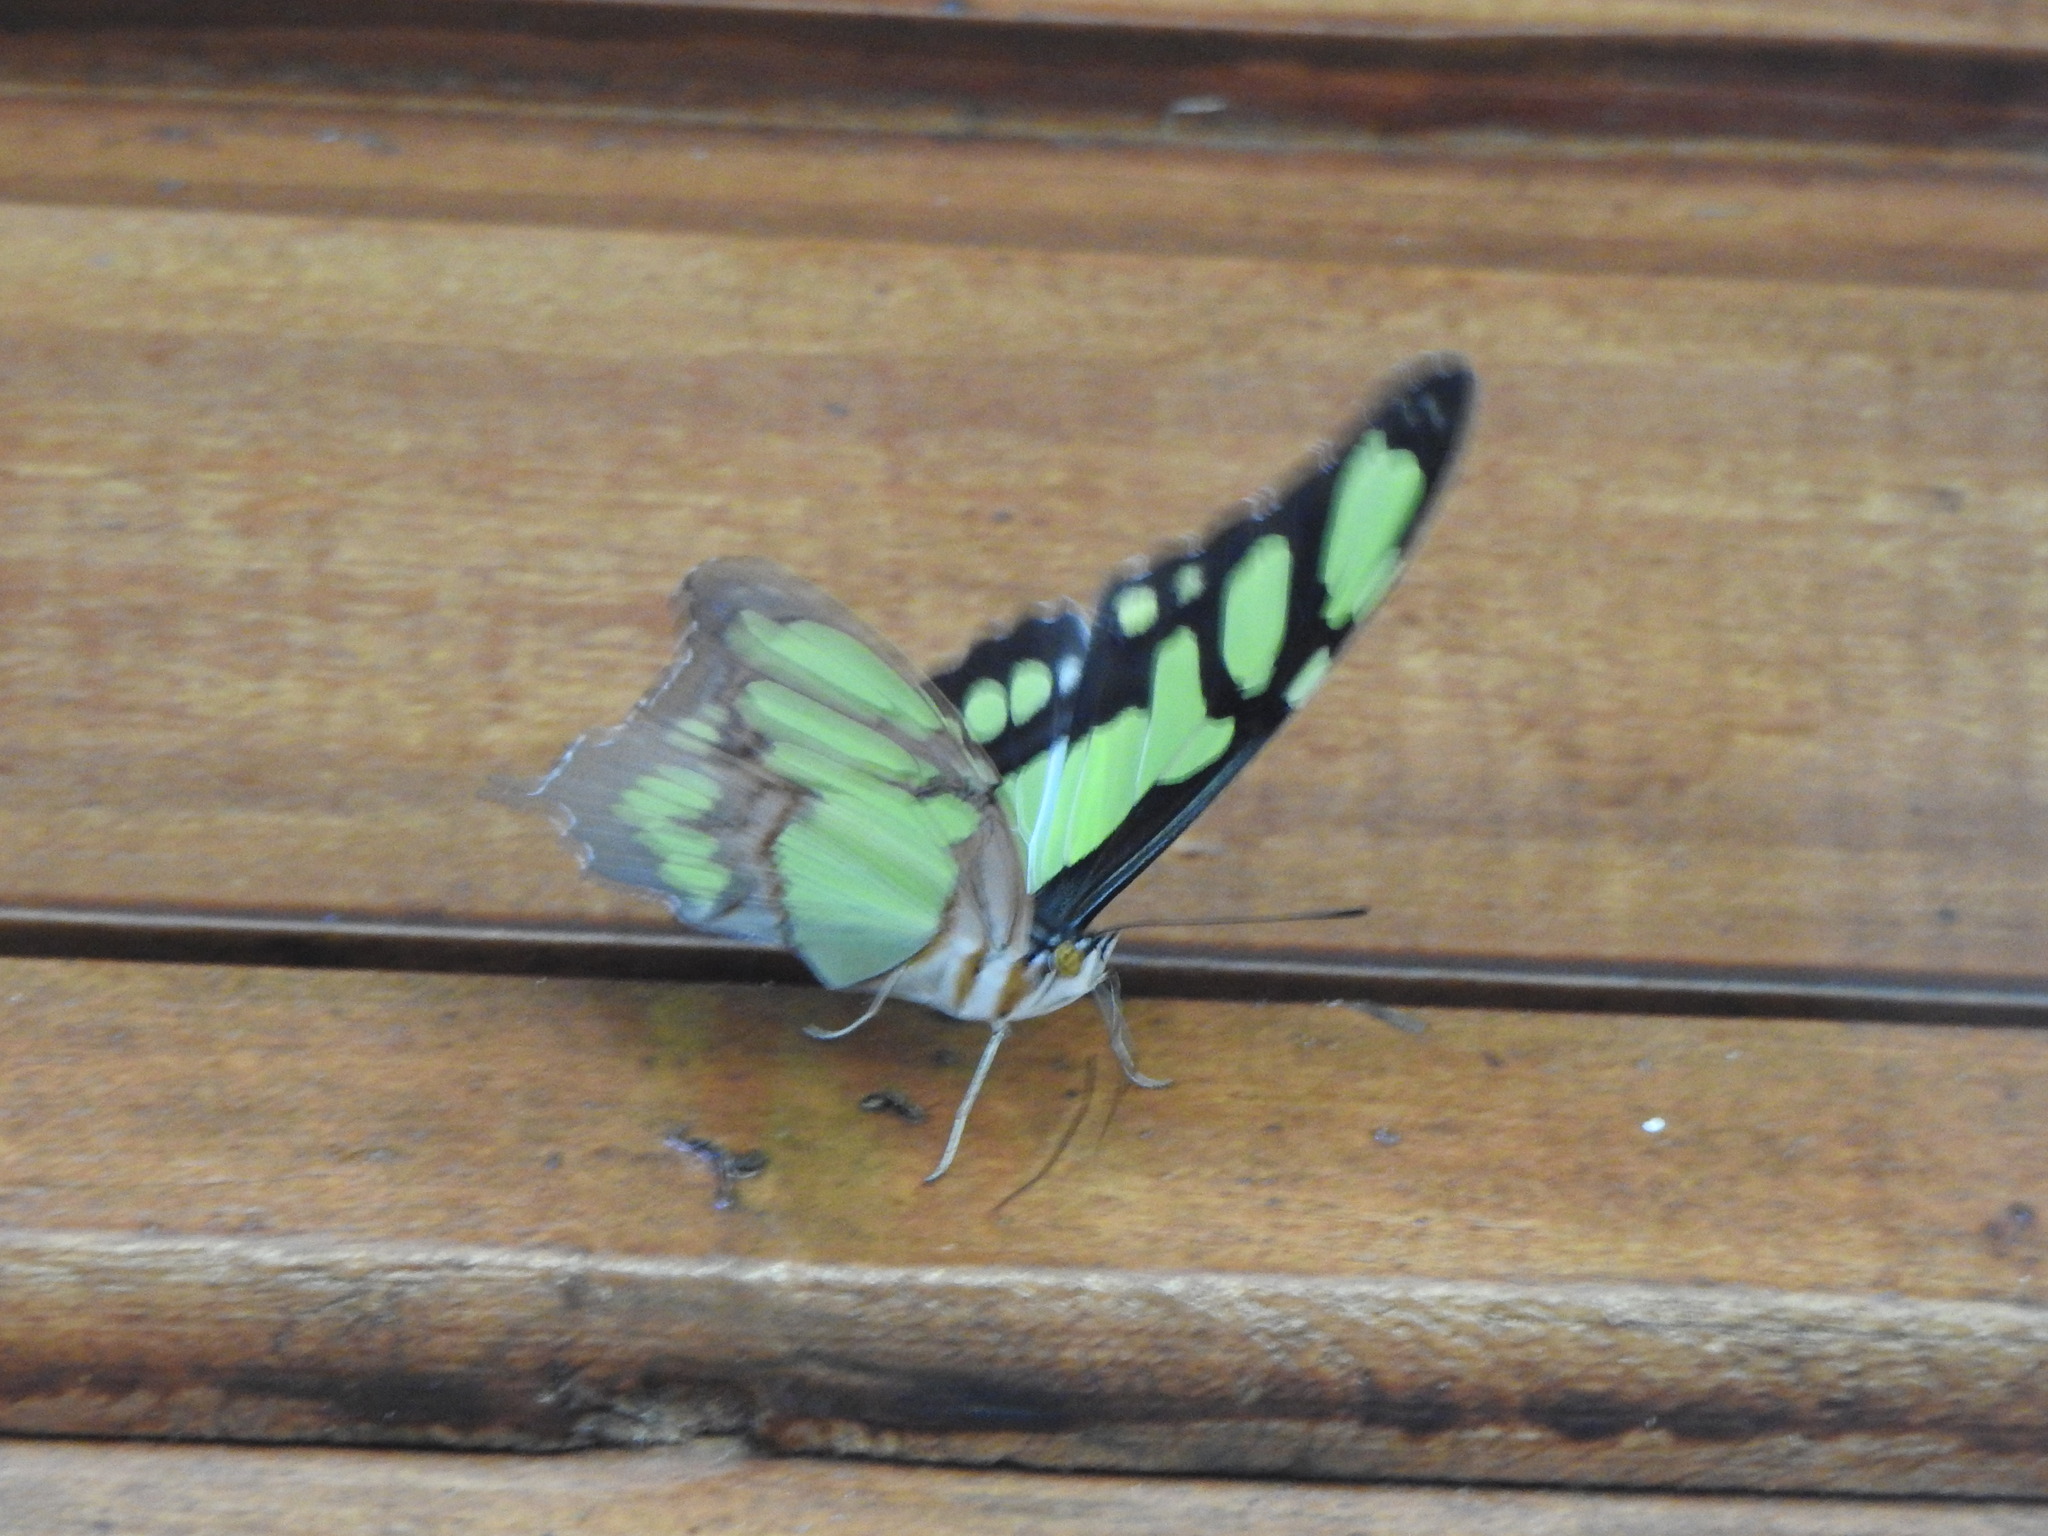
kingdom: Animalia
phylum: Arthropoda
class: Insecta
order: Lepidoptera
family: Nymphalidae
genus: Siproeta
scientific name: Siproeta stelenes
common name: Malachite
